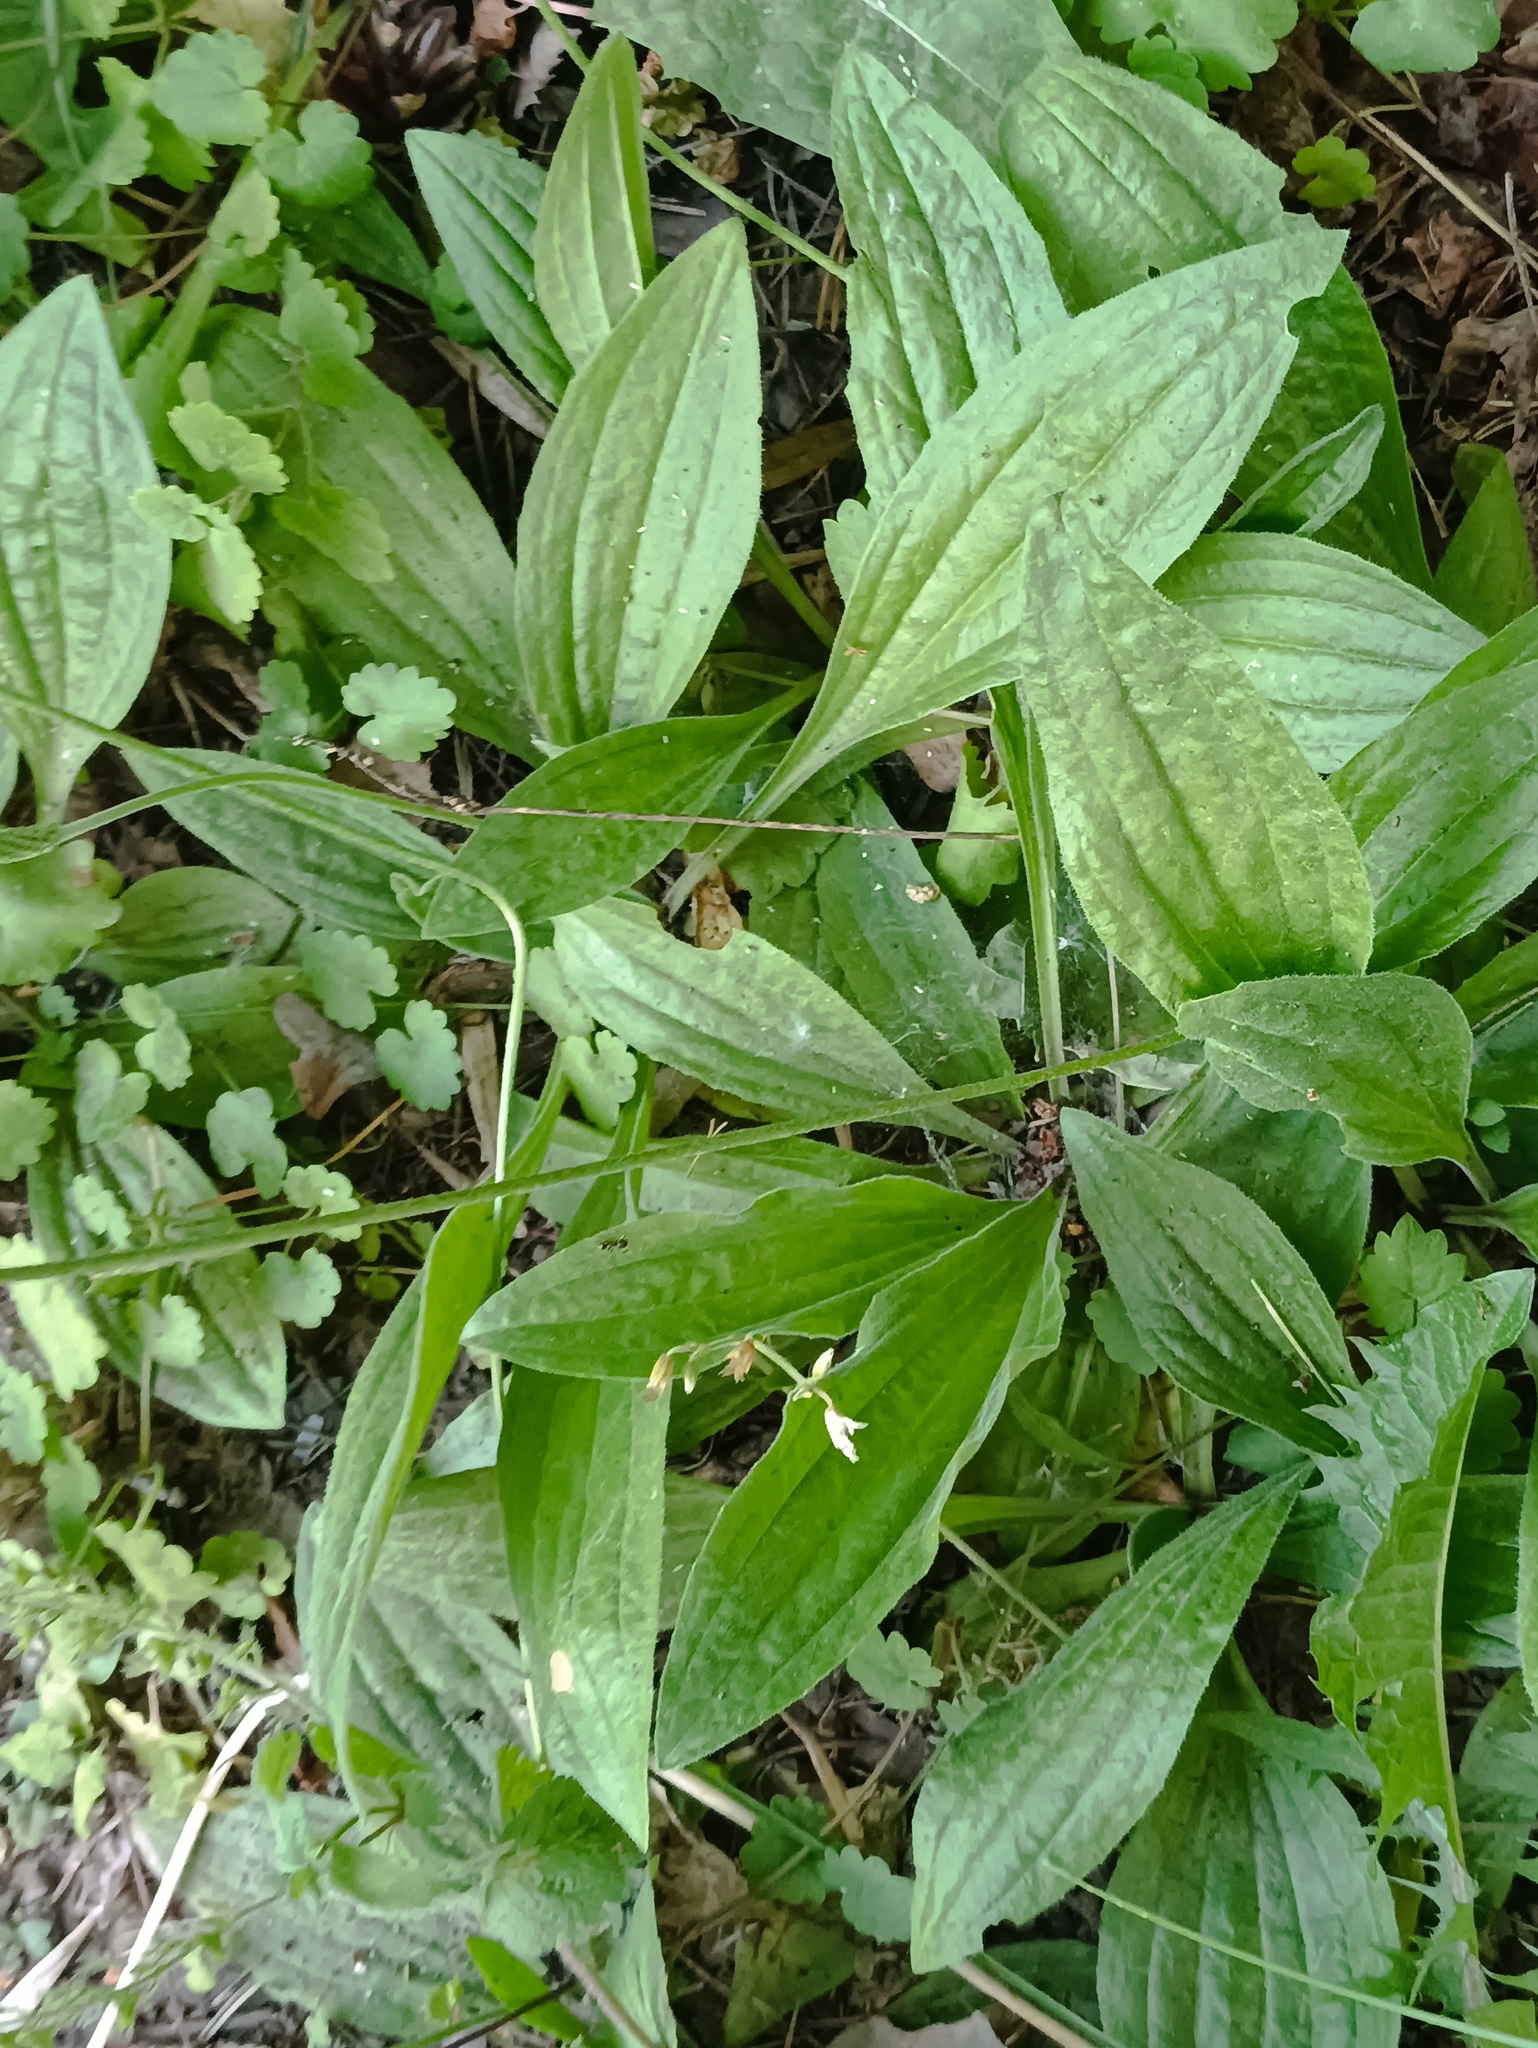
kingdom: Plantae
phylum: Tracheophyta
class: Magnoliopsida
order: Lamiales
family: Plantaginaceae
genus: Plantago
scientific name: Plantago urvillei
